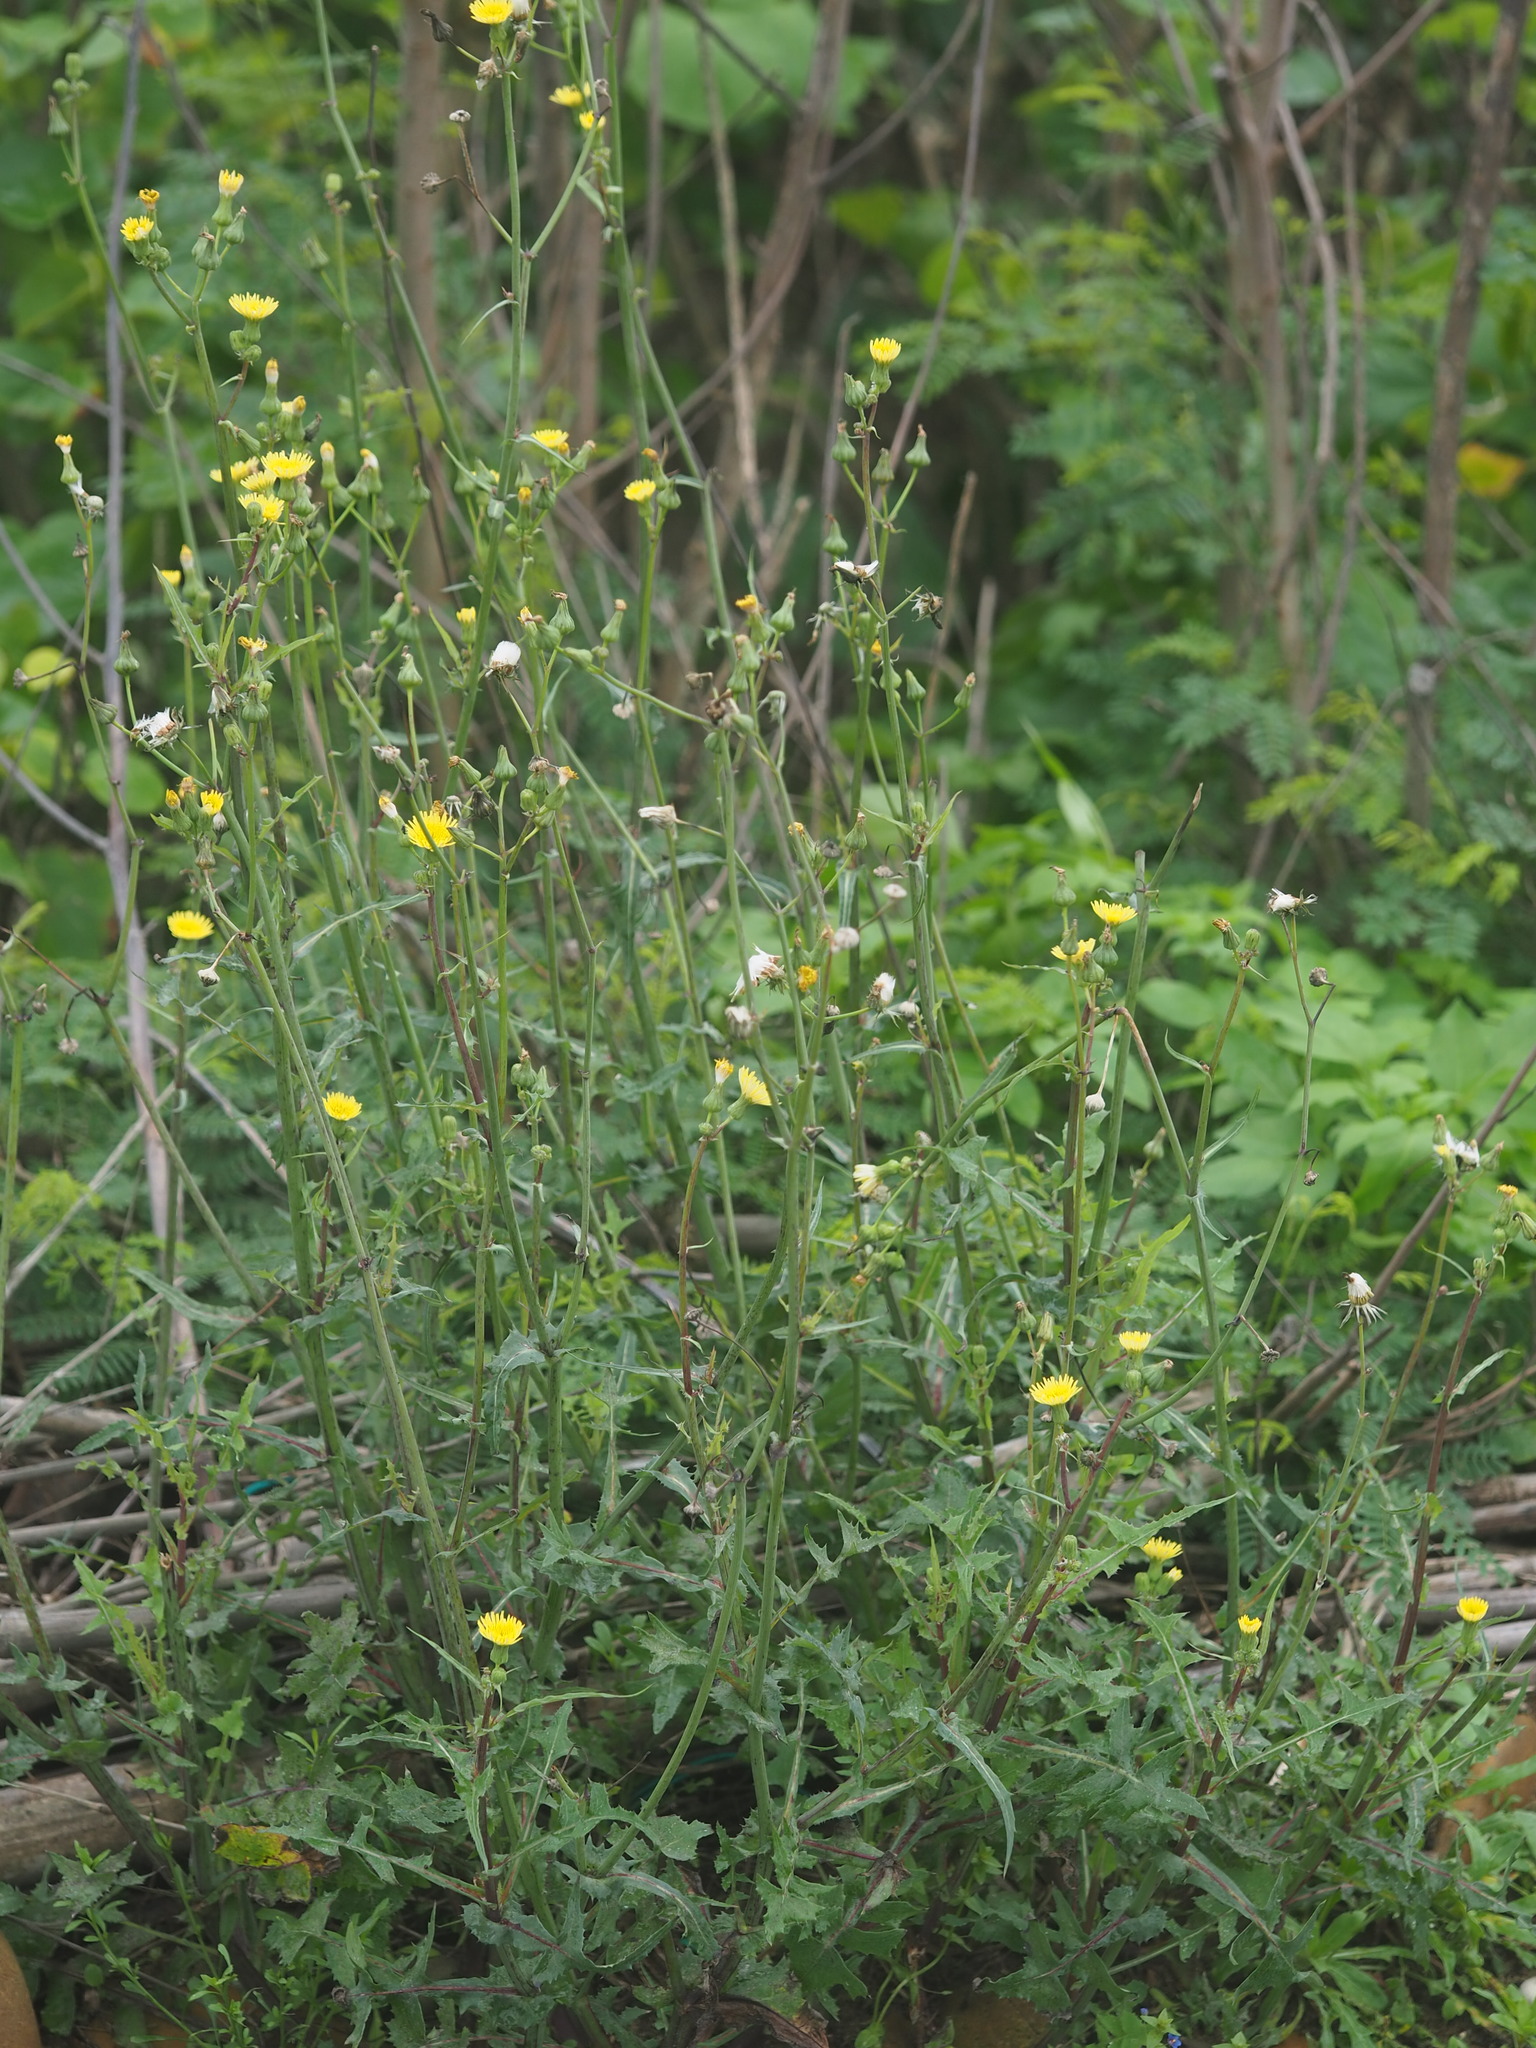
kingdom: Plantae
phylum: Tracheophyta
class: Magnoliopsida
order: Asterales
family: Asteraceae
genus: Sonchus
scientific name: Sonchus oleraceus
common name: Common sowthistle
